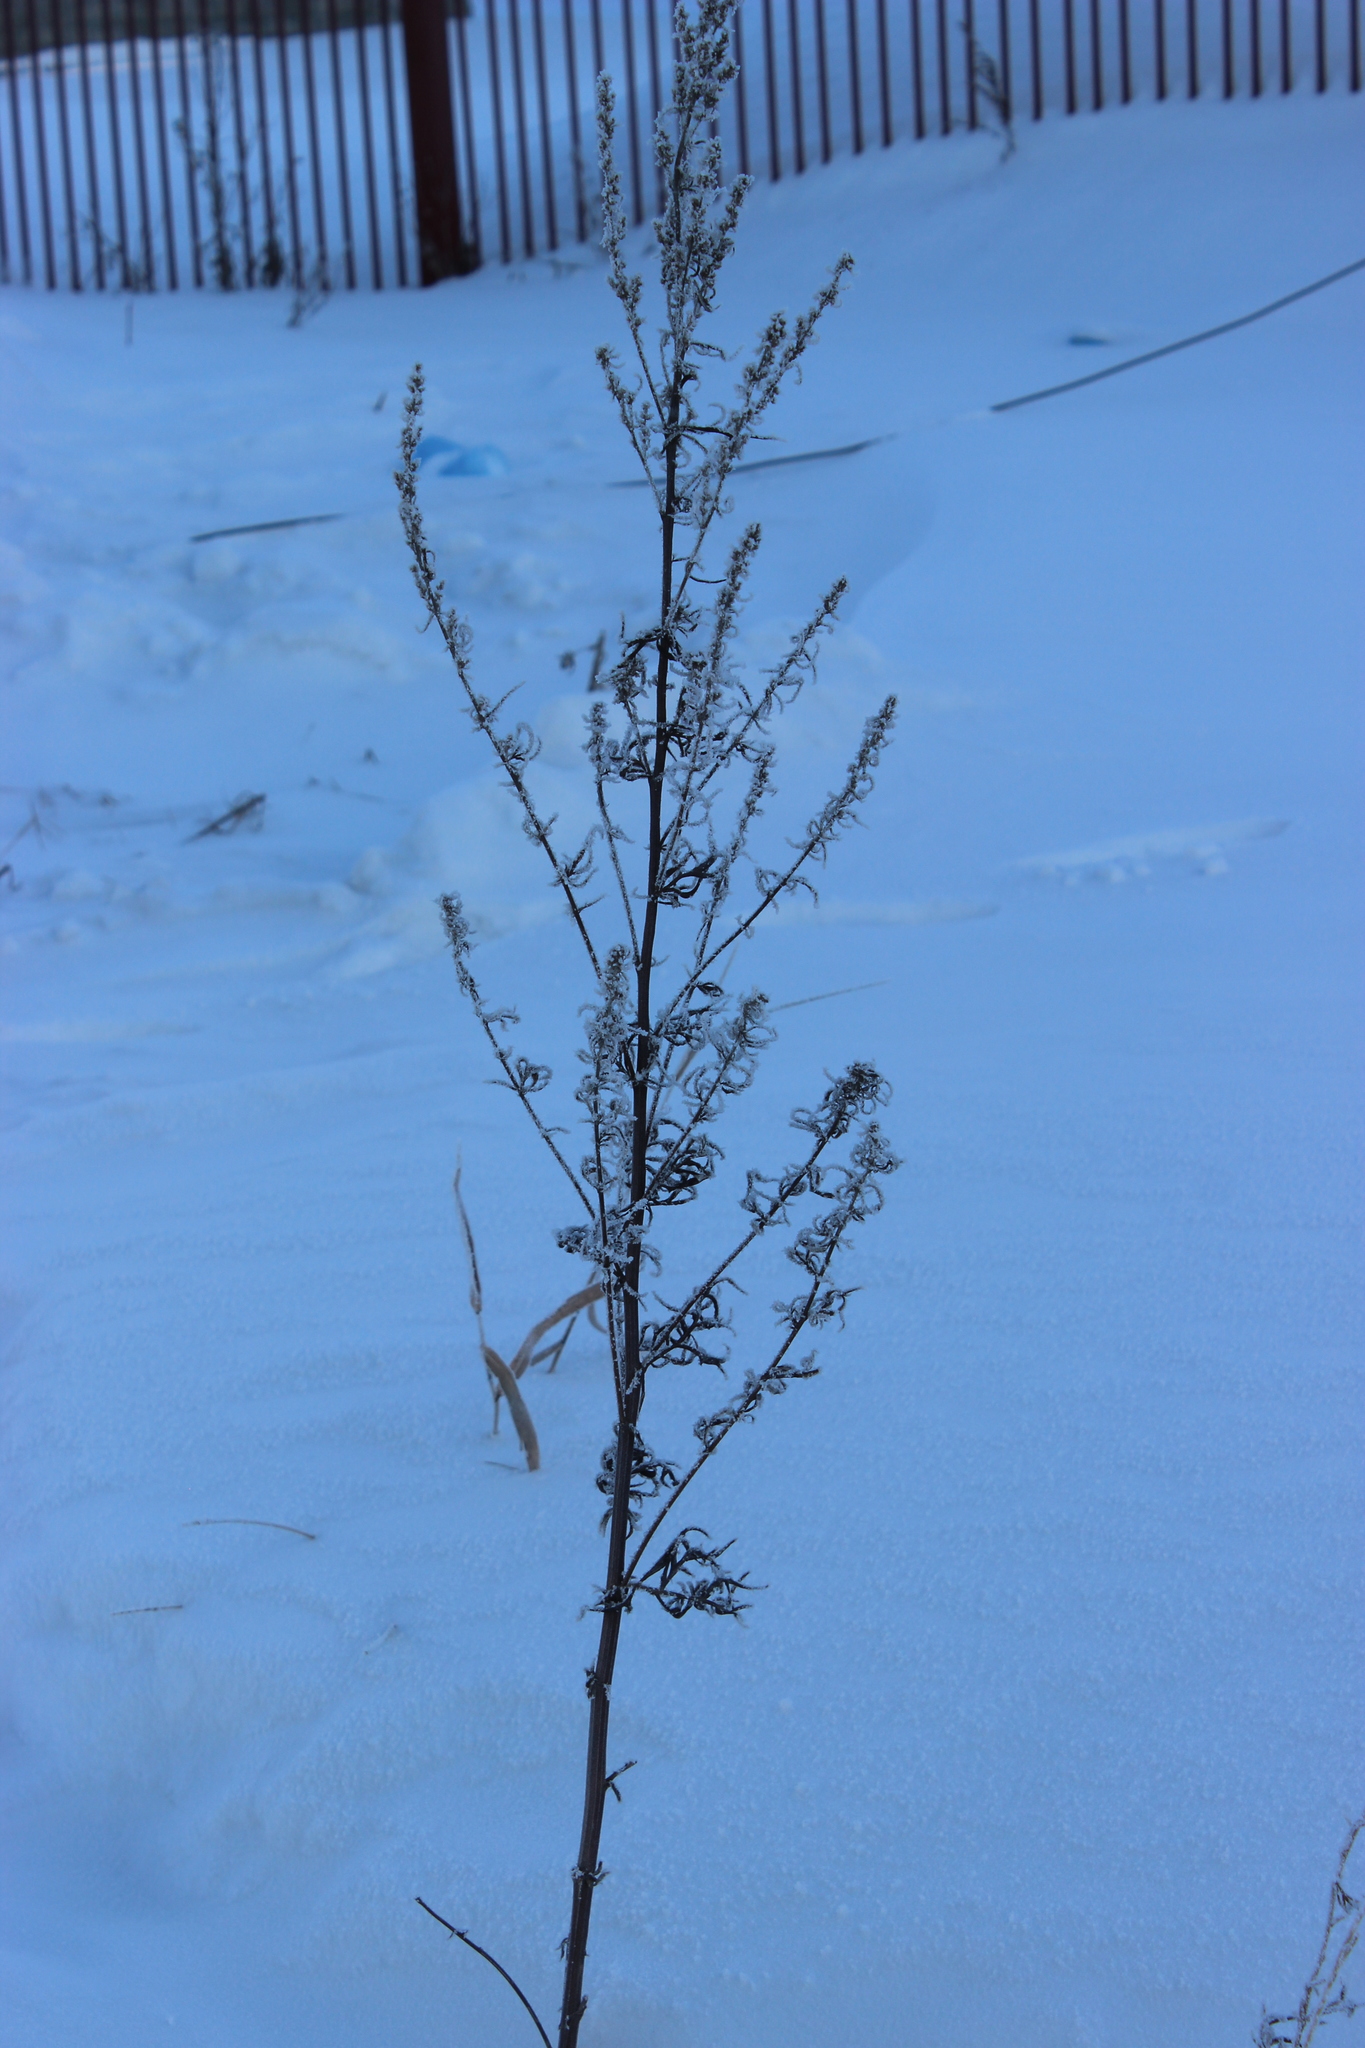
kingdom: Plantae
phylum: Tracheophyta
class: Magnoliopsida
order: Asterales
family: Asteraceae
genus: Artemisia
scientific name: Artemisia vulgaris
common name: Mugwort
